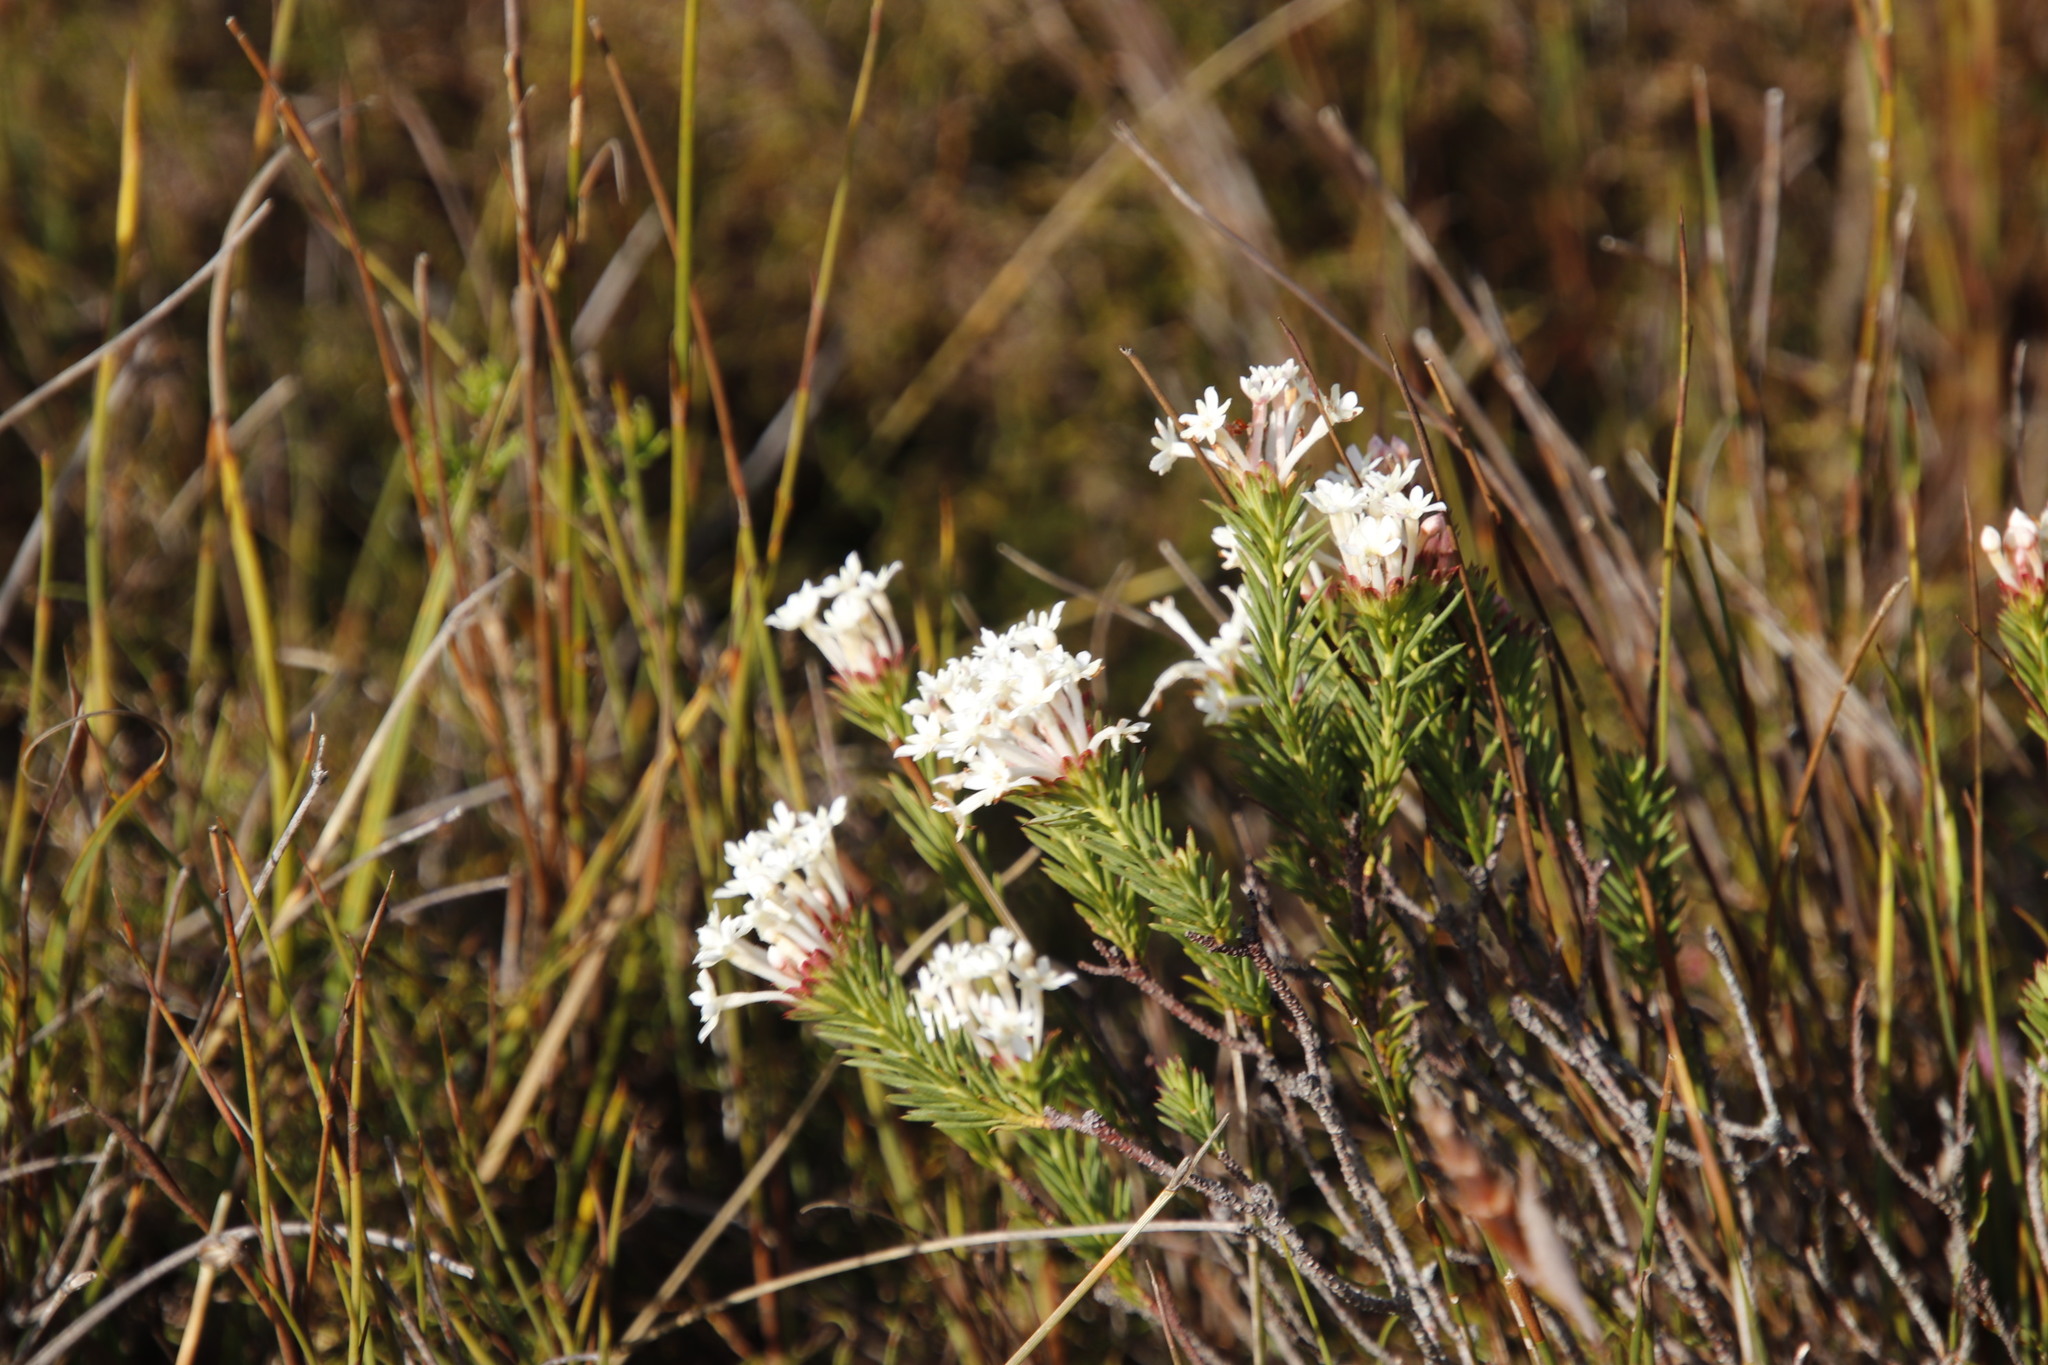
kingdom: Plantae
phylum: Tracheophyta
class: Magnoliopsida
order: Malvales
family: Thymelaeaceae
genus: Gnidia
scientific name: Gnidia pinifolia
